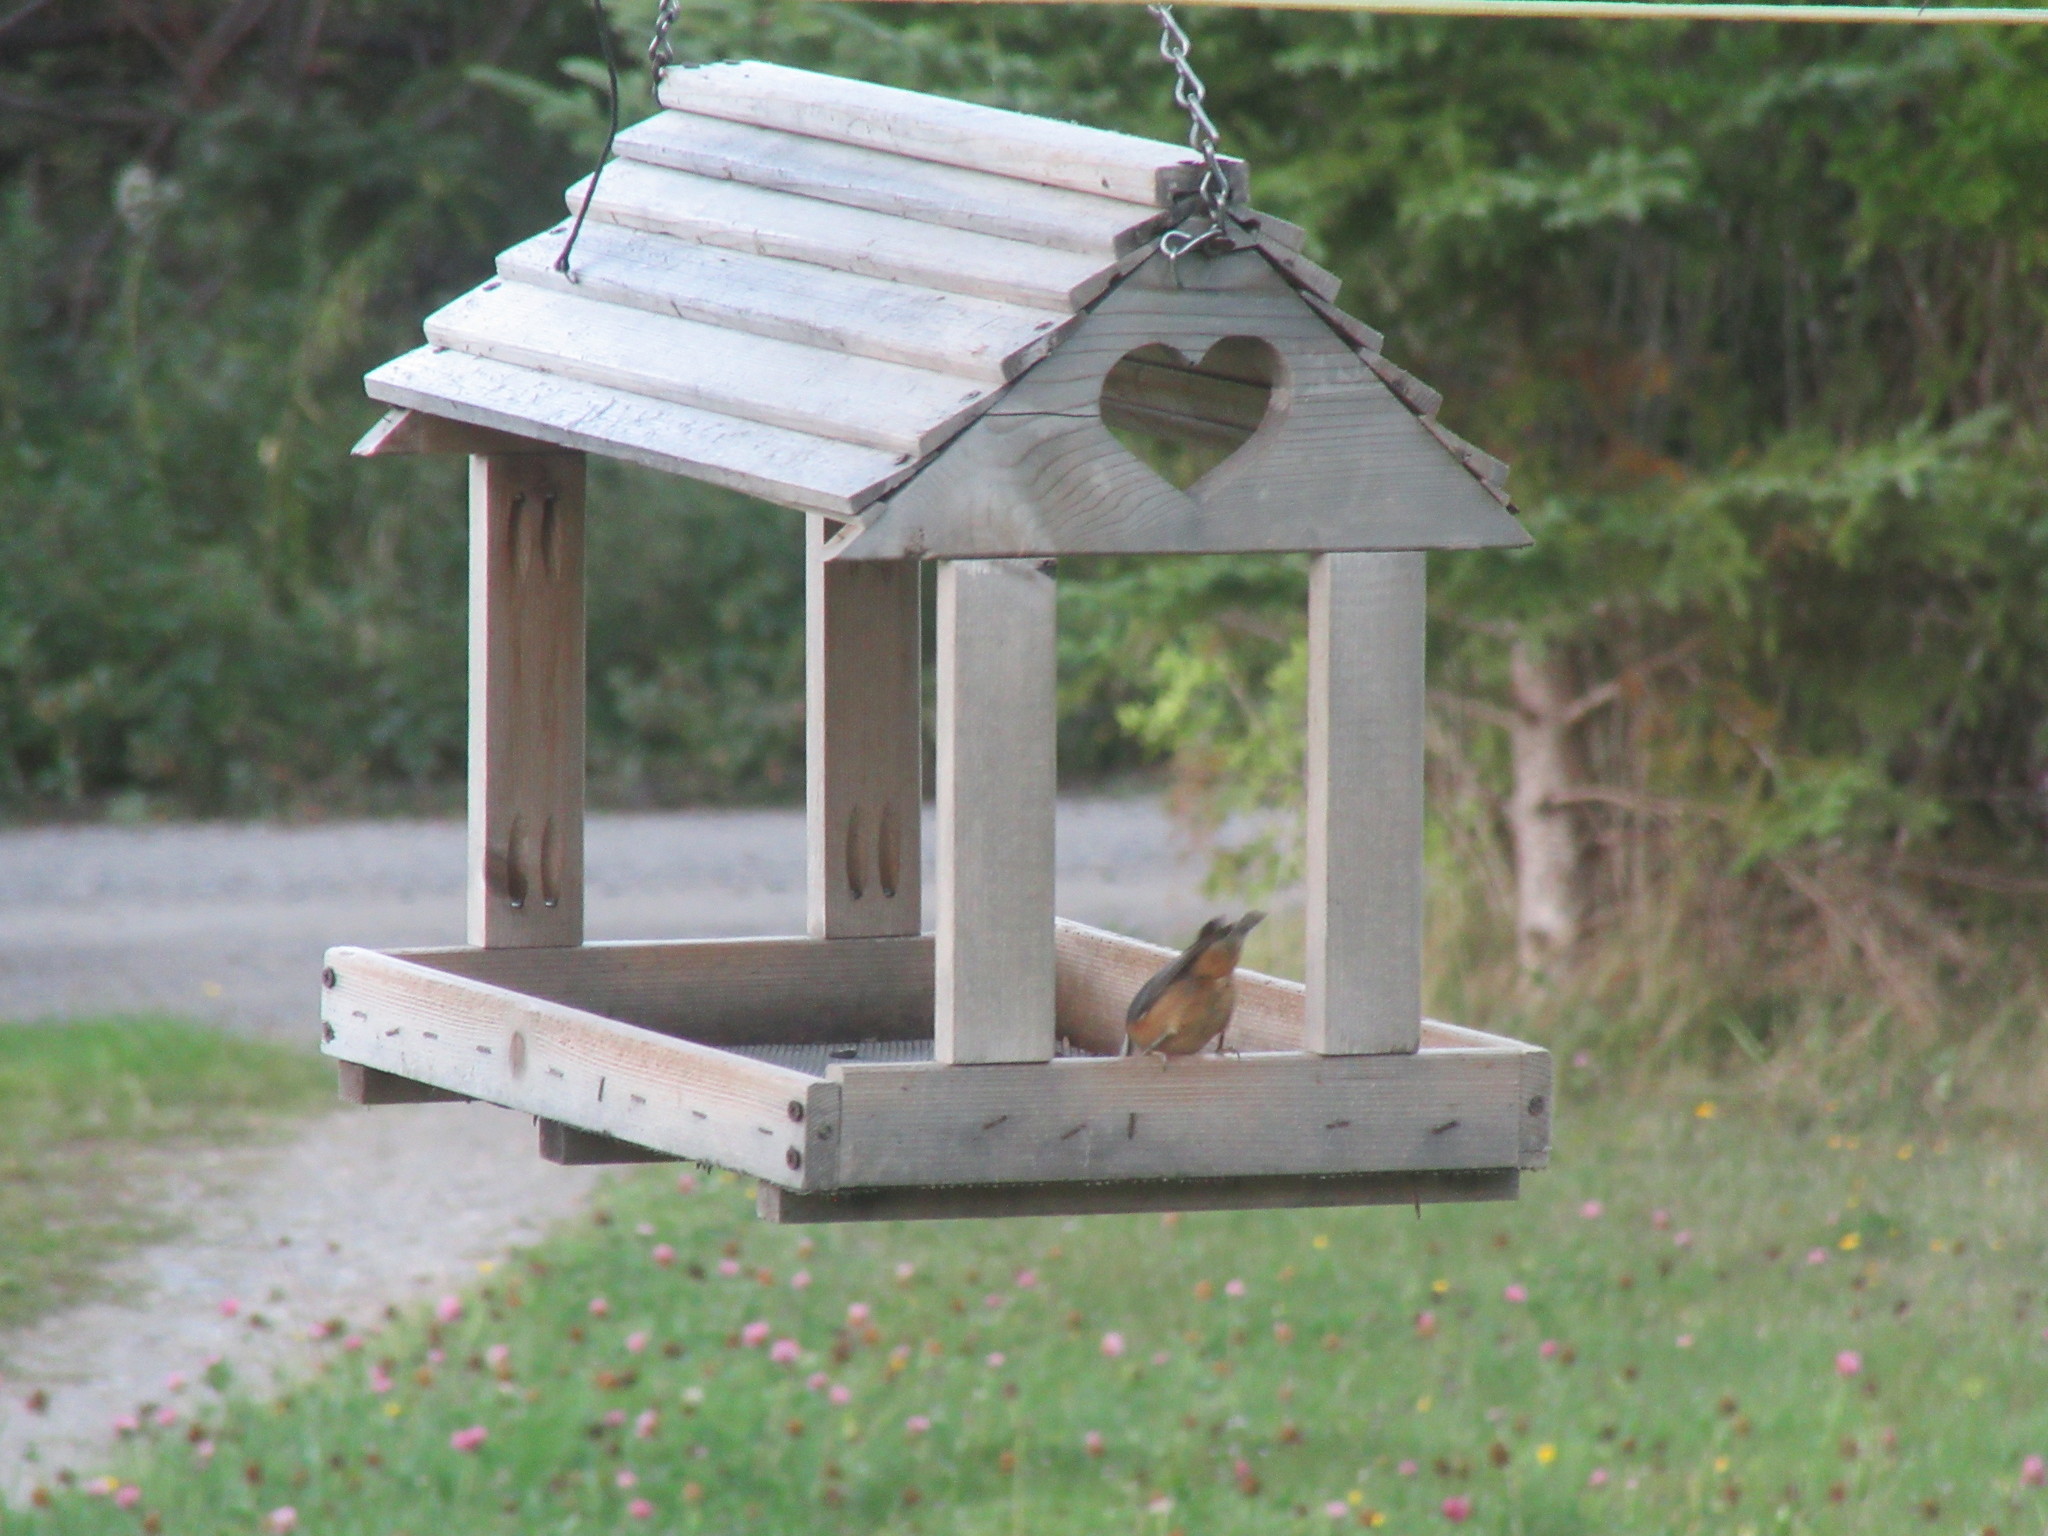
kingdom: Animalia
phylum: Chordata
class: Aves
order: Passeriformes
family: Sittidae
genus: Sitta
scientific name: Sitta canadensis
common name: Red-breasted nuthatch
